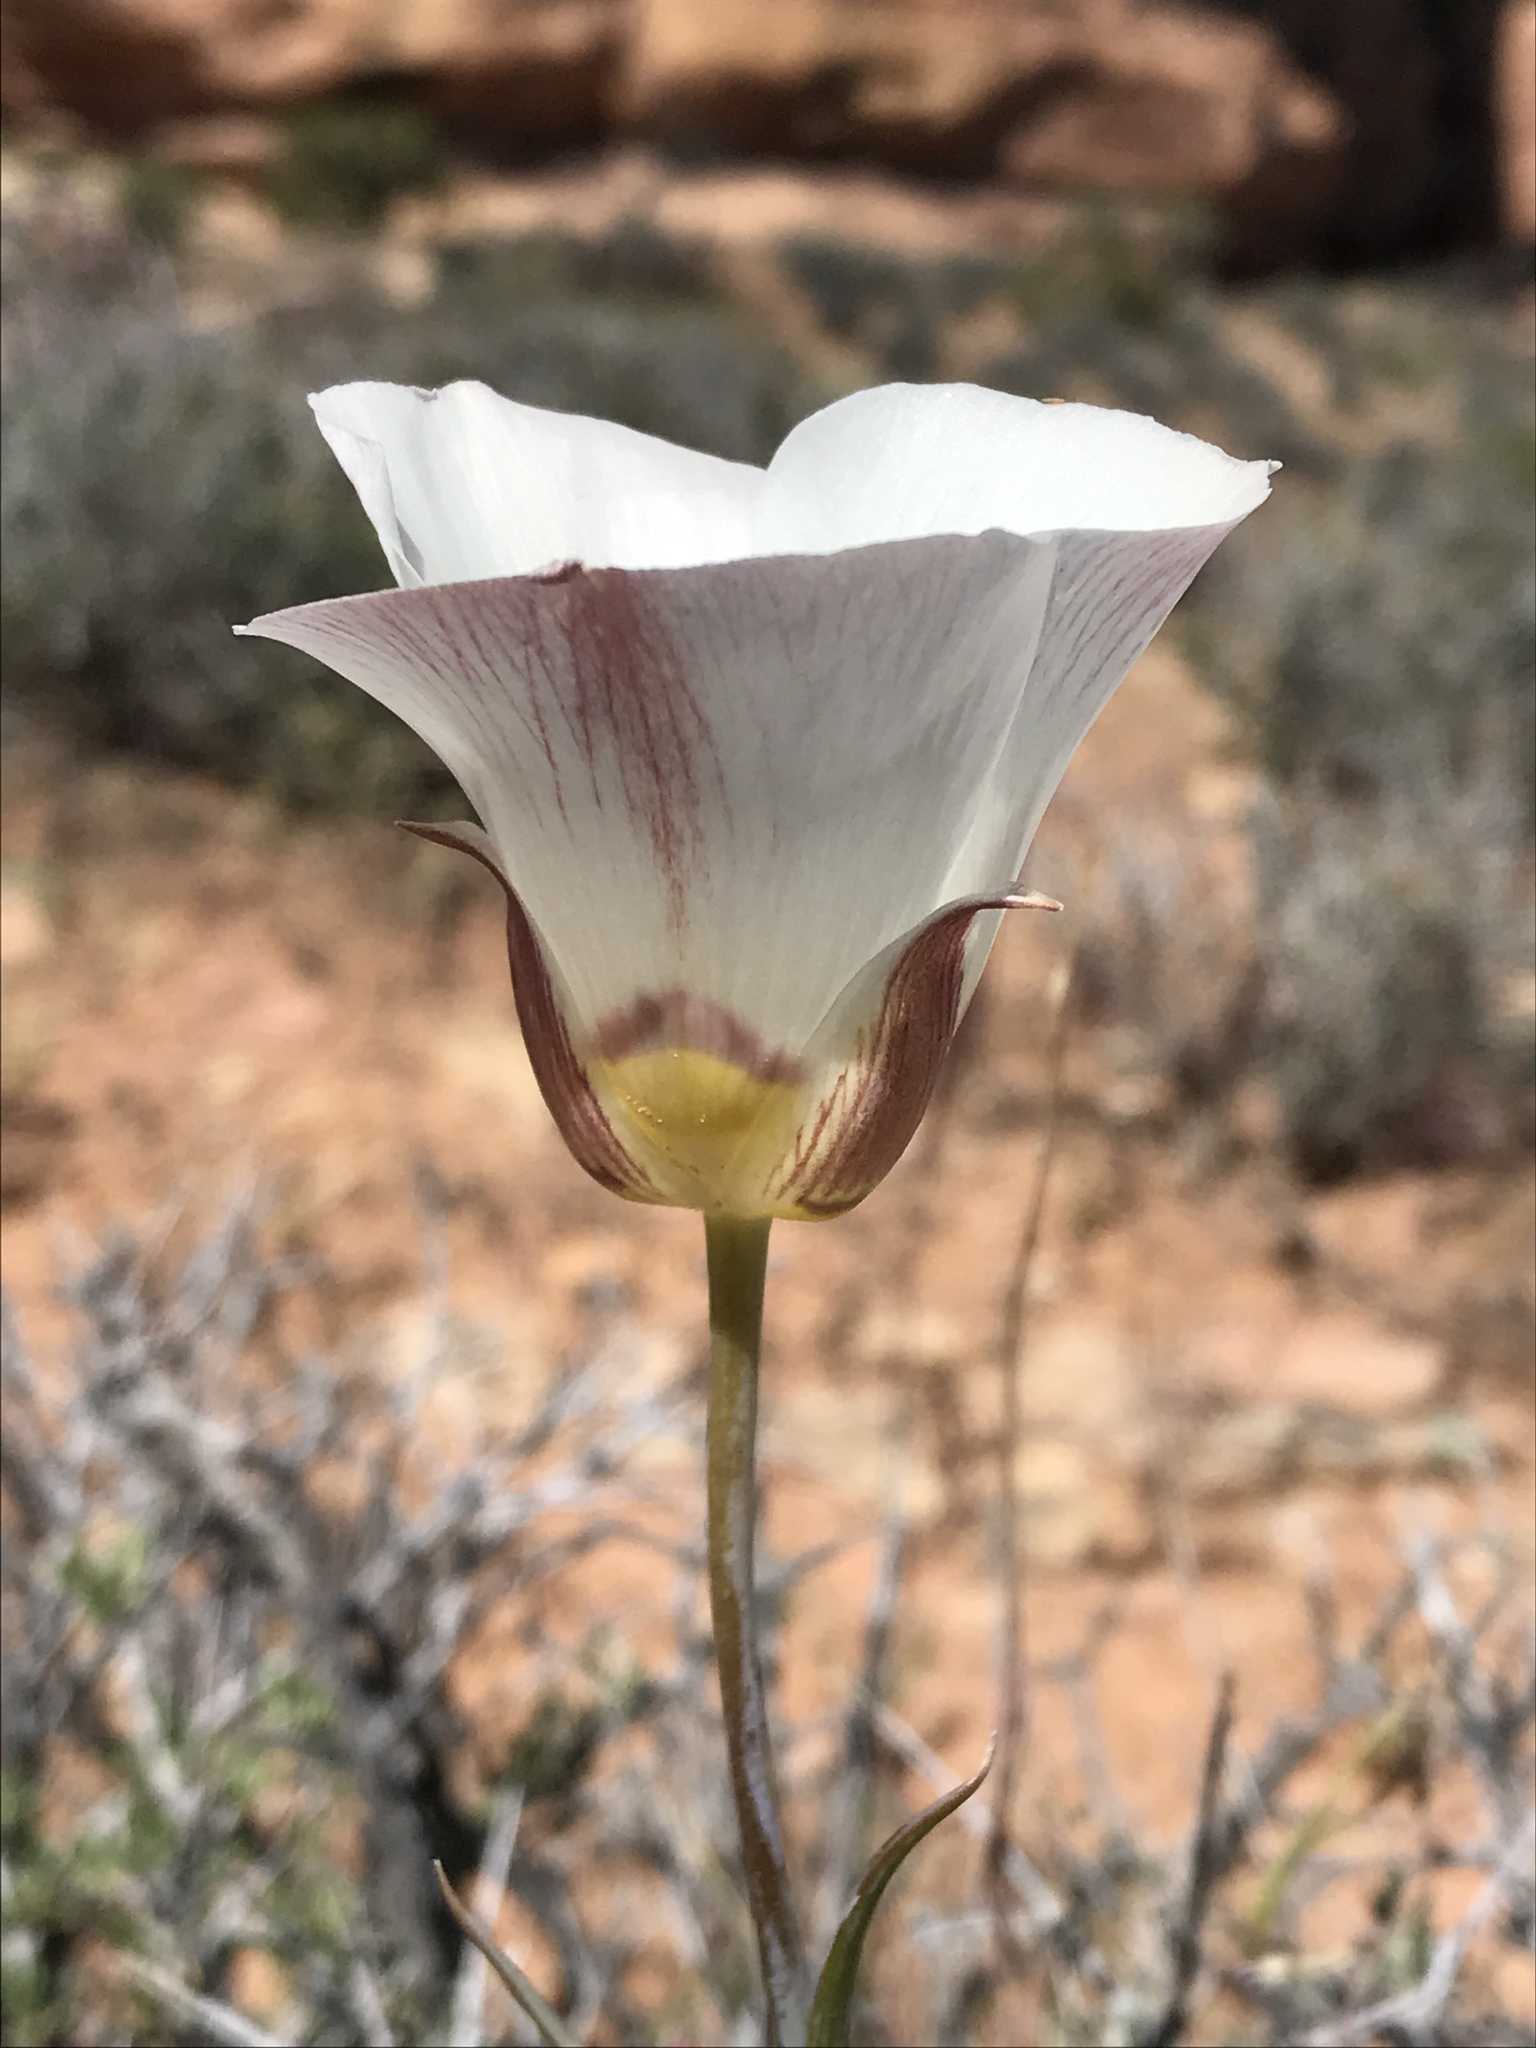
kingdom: Plantae
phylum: Tracheophyta
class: Liliopsida
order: Liliales
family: Liliaceae
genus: Calochortus
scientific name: Calochortus nuttallii
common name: Sego-lily
